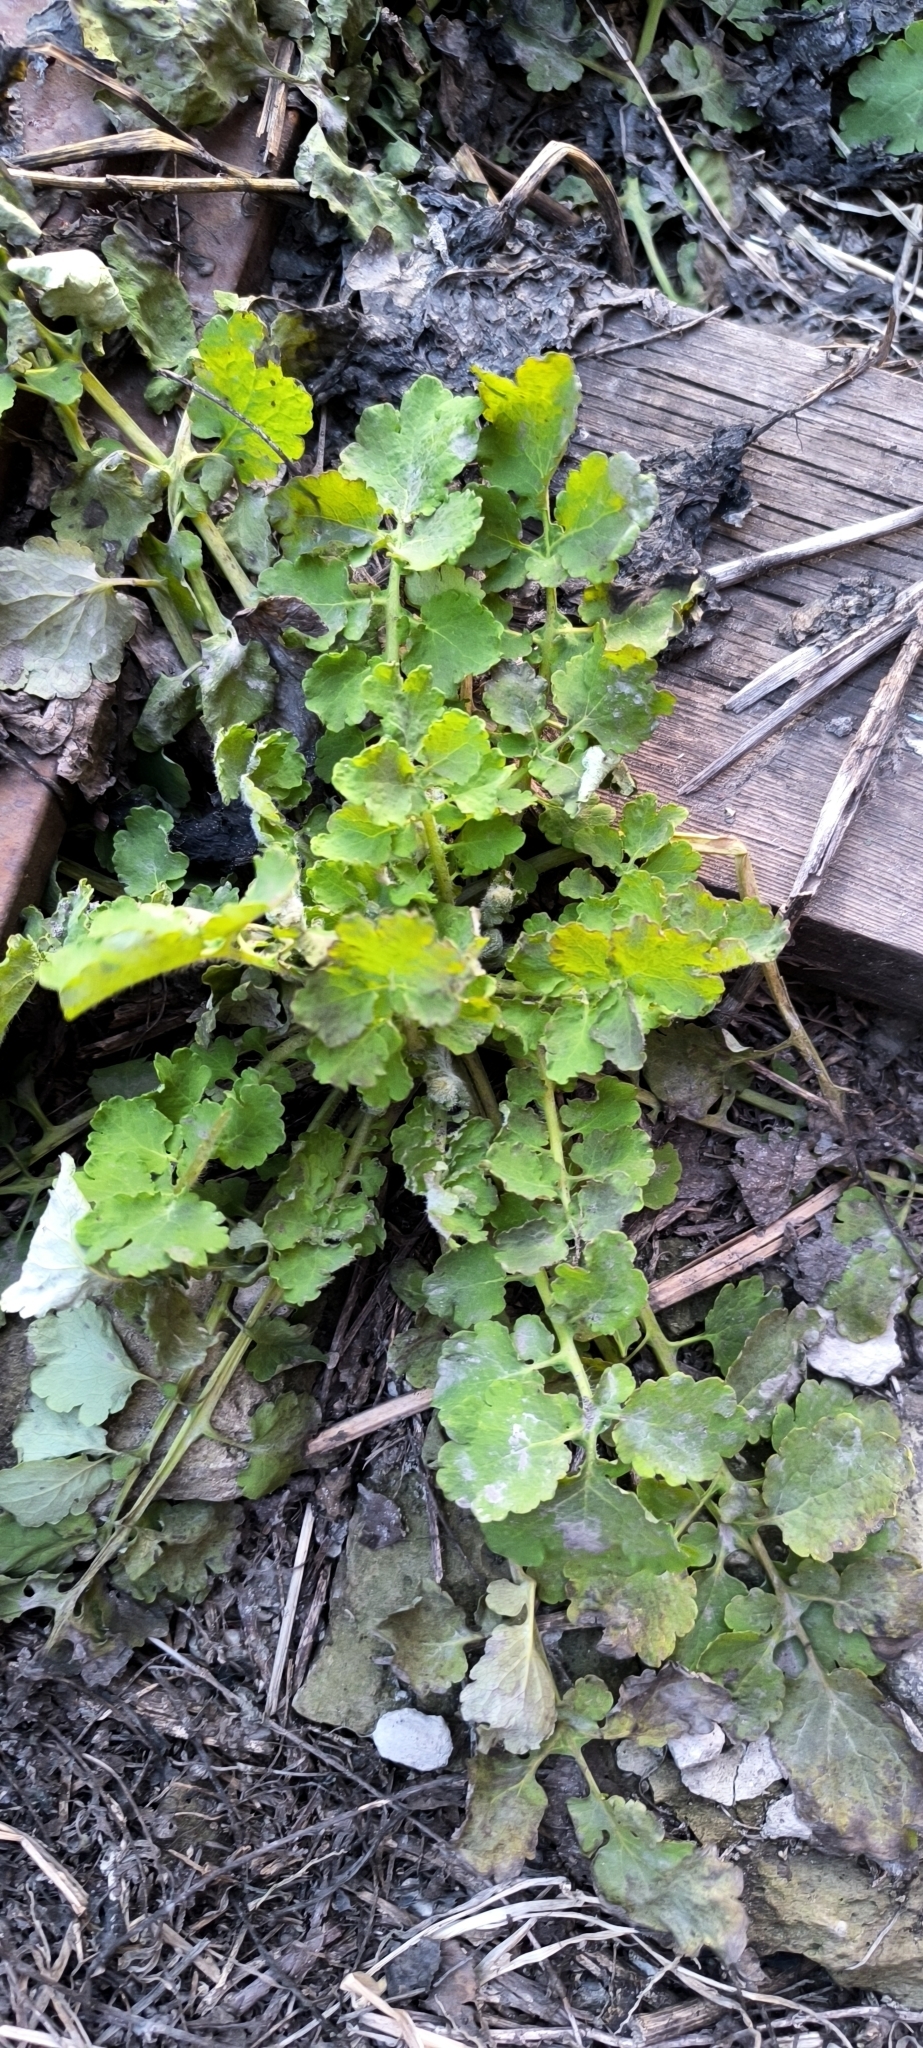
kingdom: Plantae
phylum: Tracheophyta
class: Magnoliopsida
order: Ranunculales
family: Papaveraceae
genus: Chelidonium
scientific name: Chelidonium majus
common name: Greater celandine
